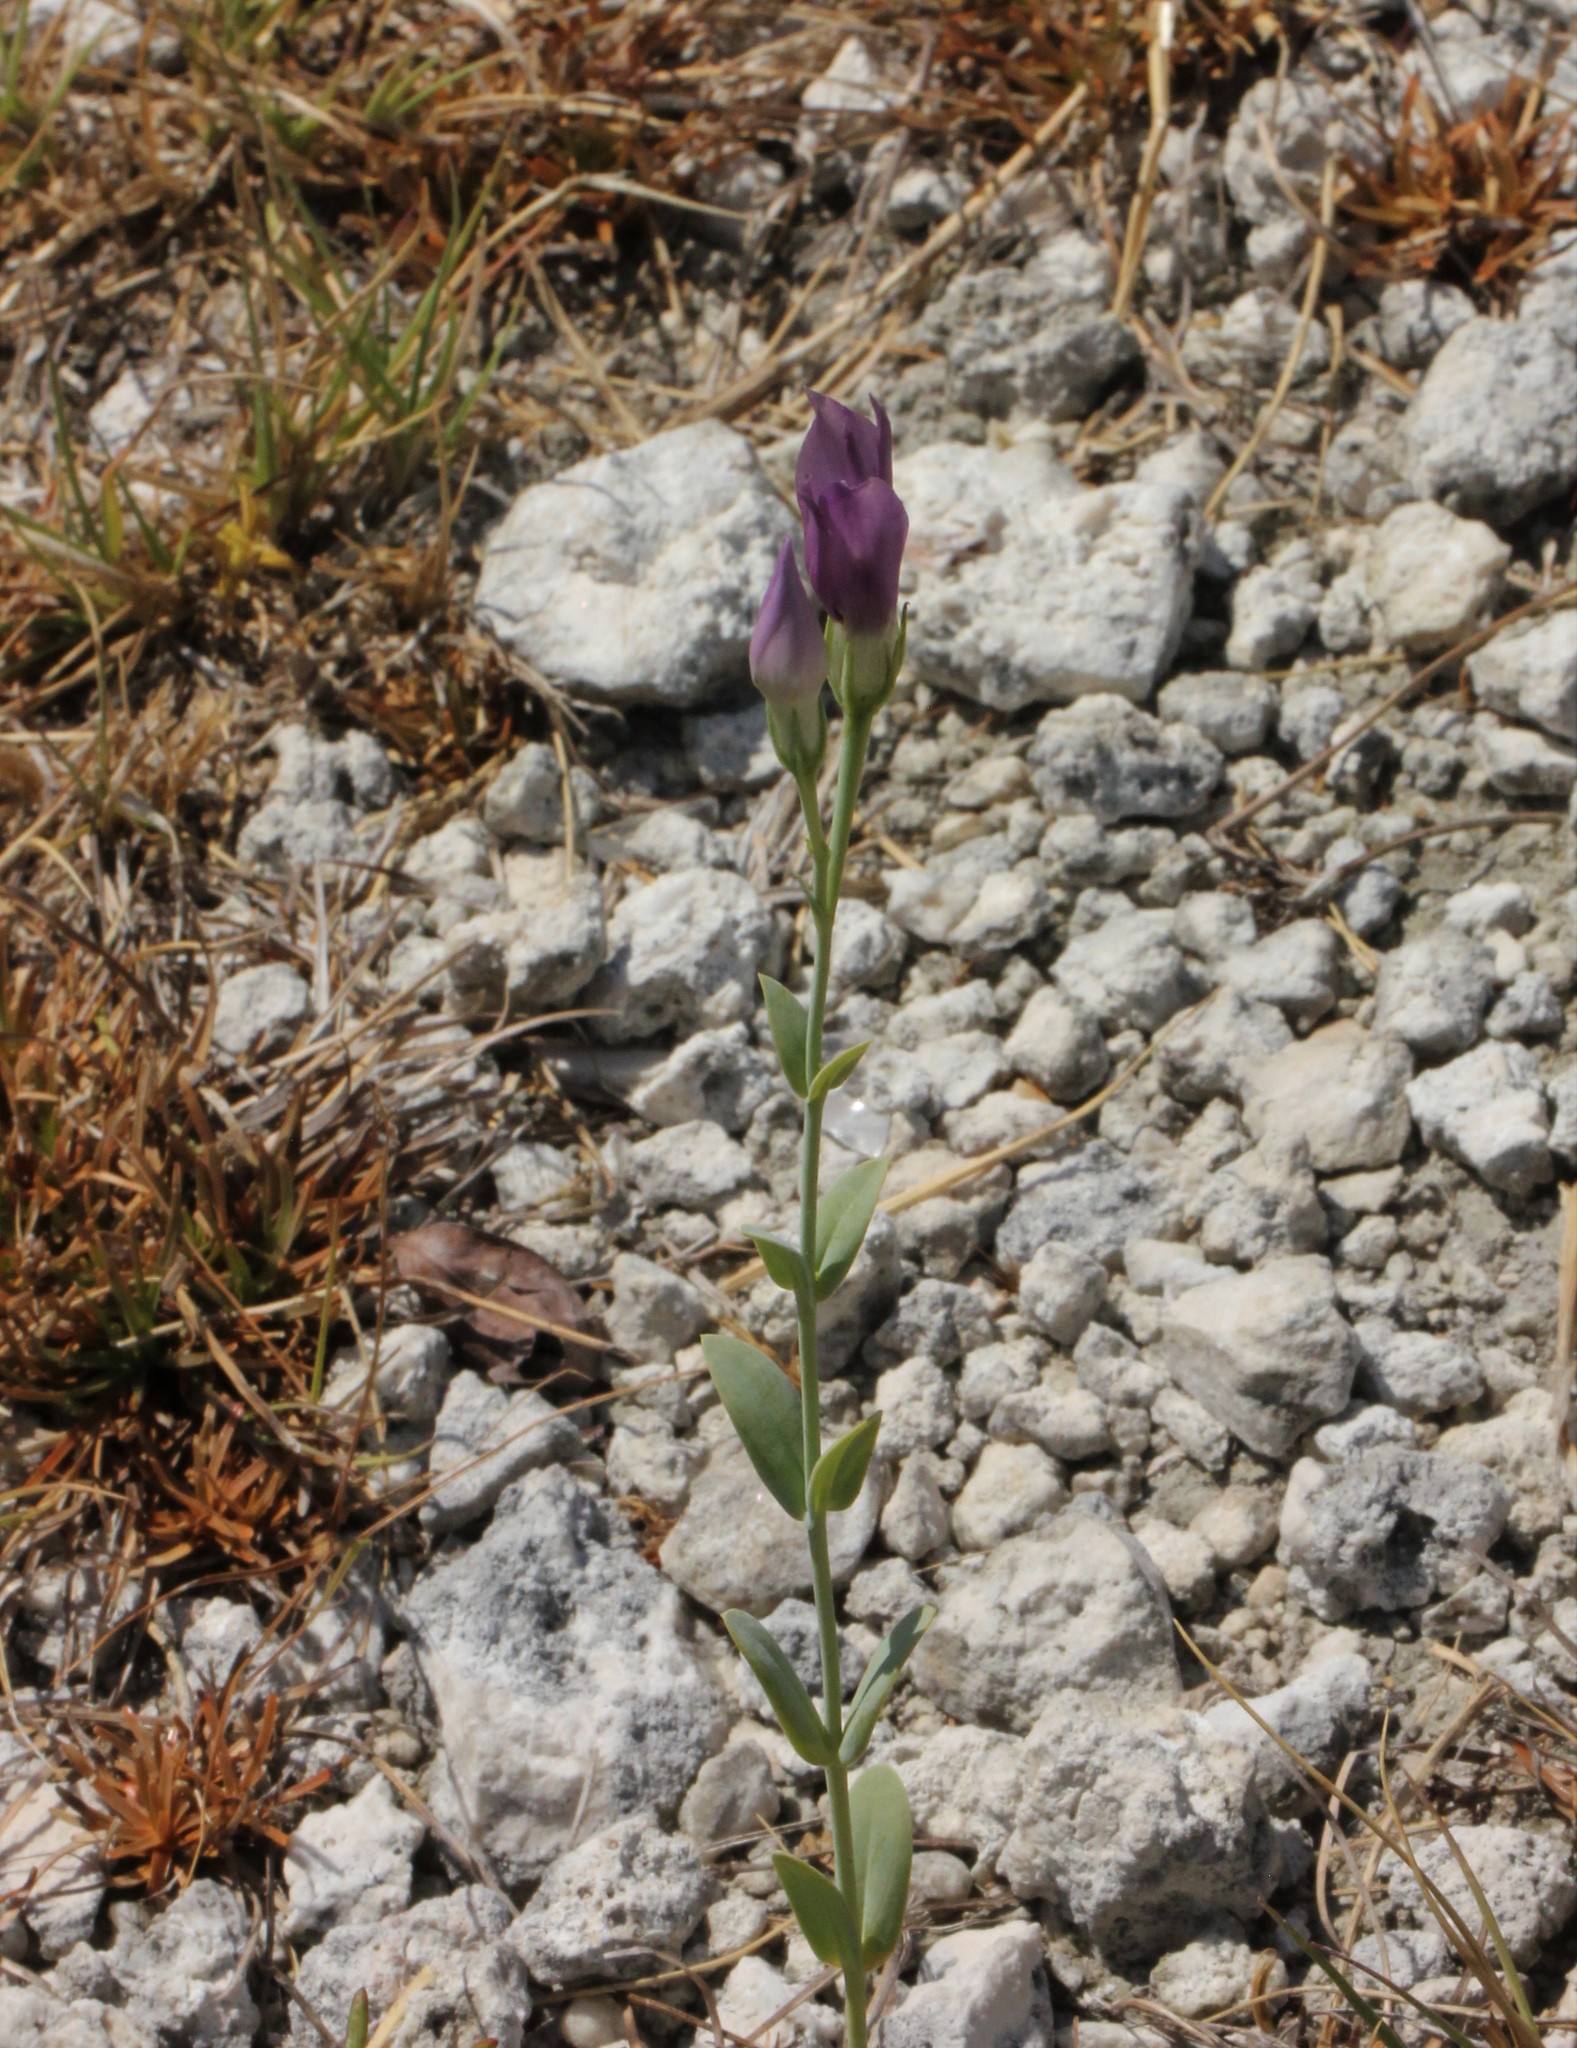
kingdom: Plantae
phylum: Tracheophyta
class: Magnoliopsida
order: Gentianales
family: Gentianaceae
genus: Eustoma
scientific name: Eustoma exaltatum
